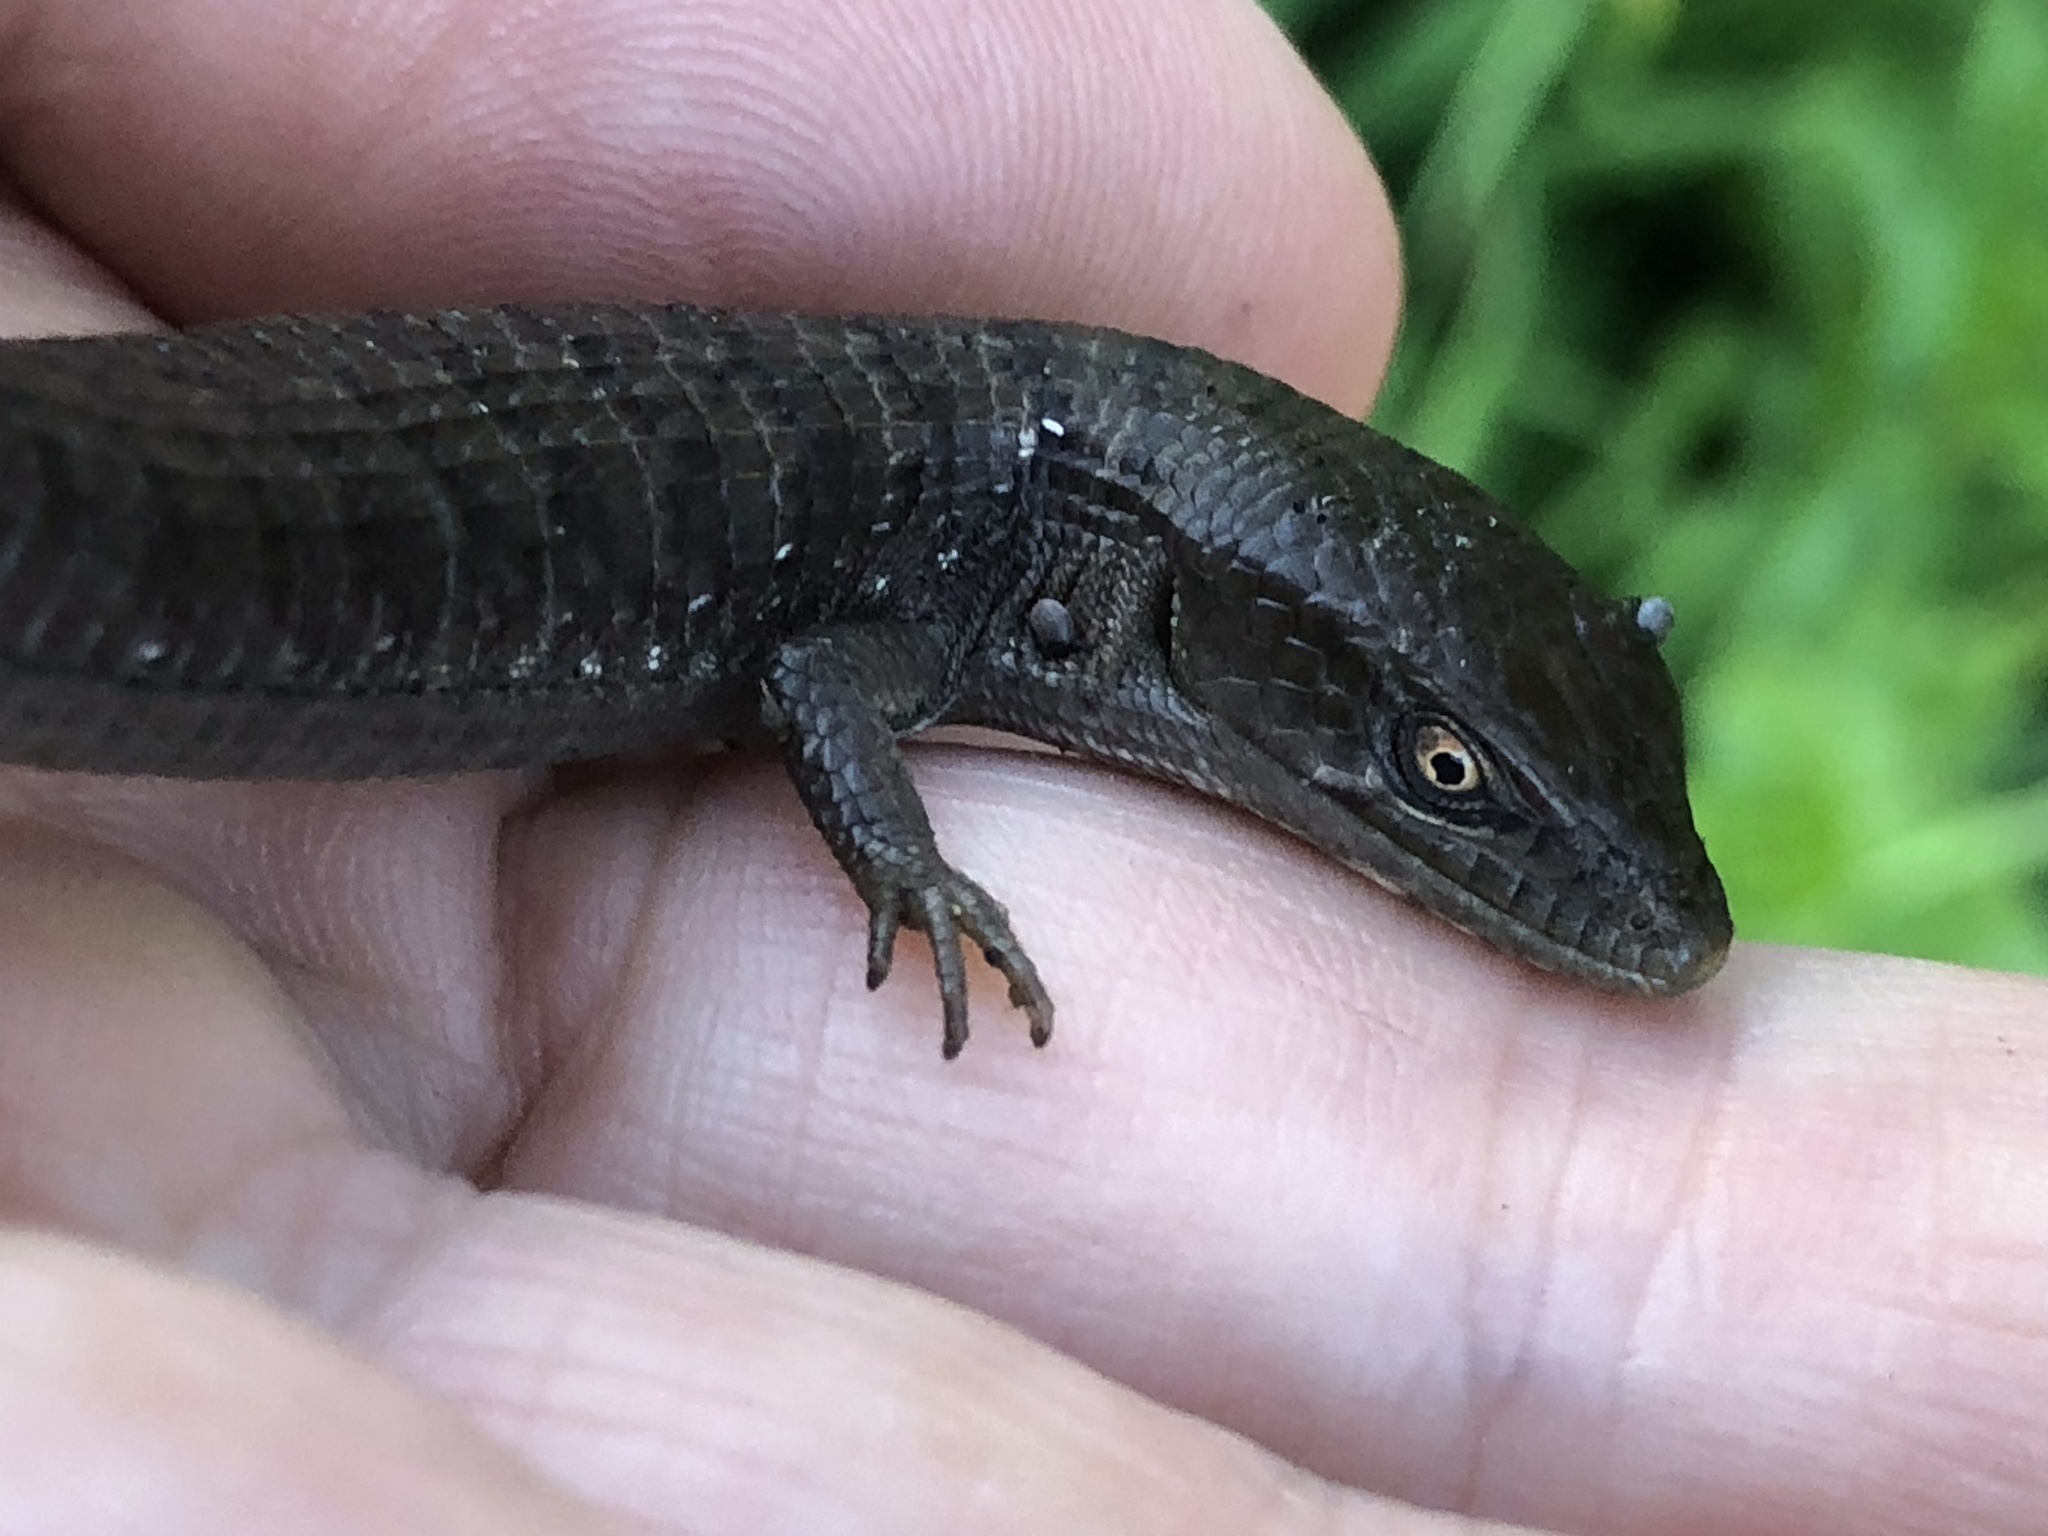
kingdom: Animalia
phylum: Chordata
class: Squamata
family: Anguidae
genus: Elgaria
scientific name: Elgaria multicarinata
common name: Southern alligator lizard
